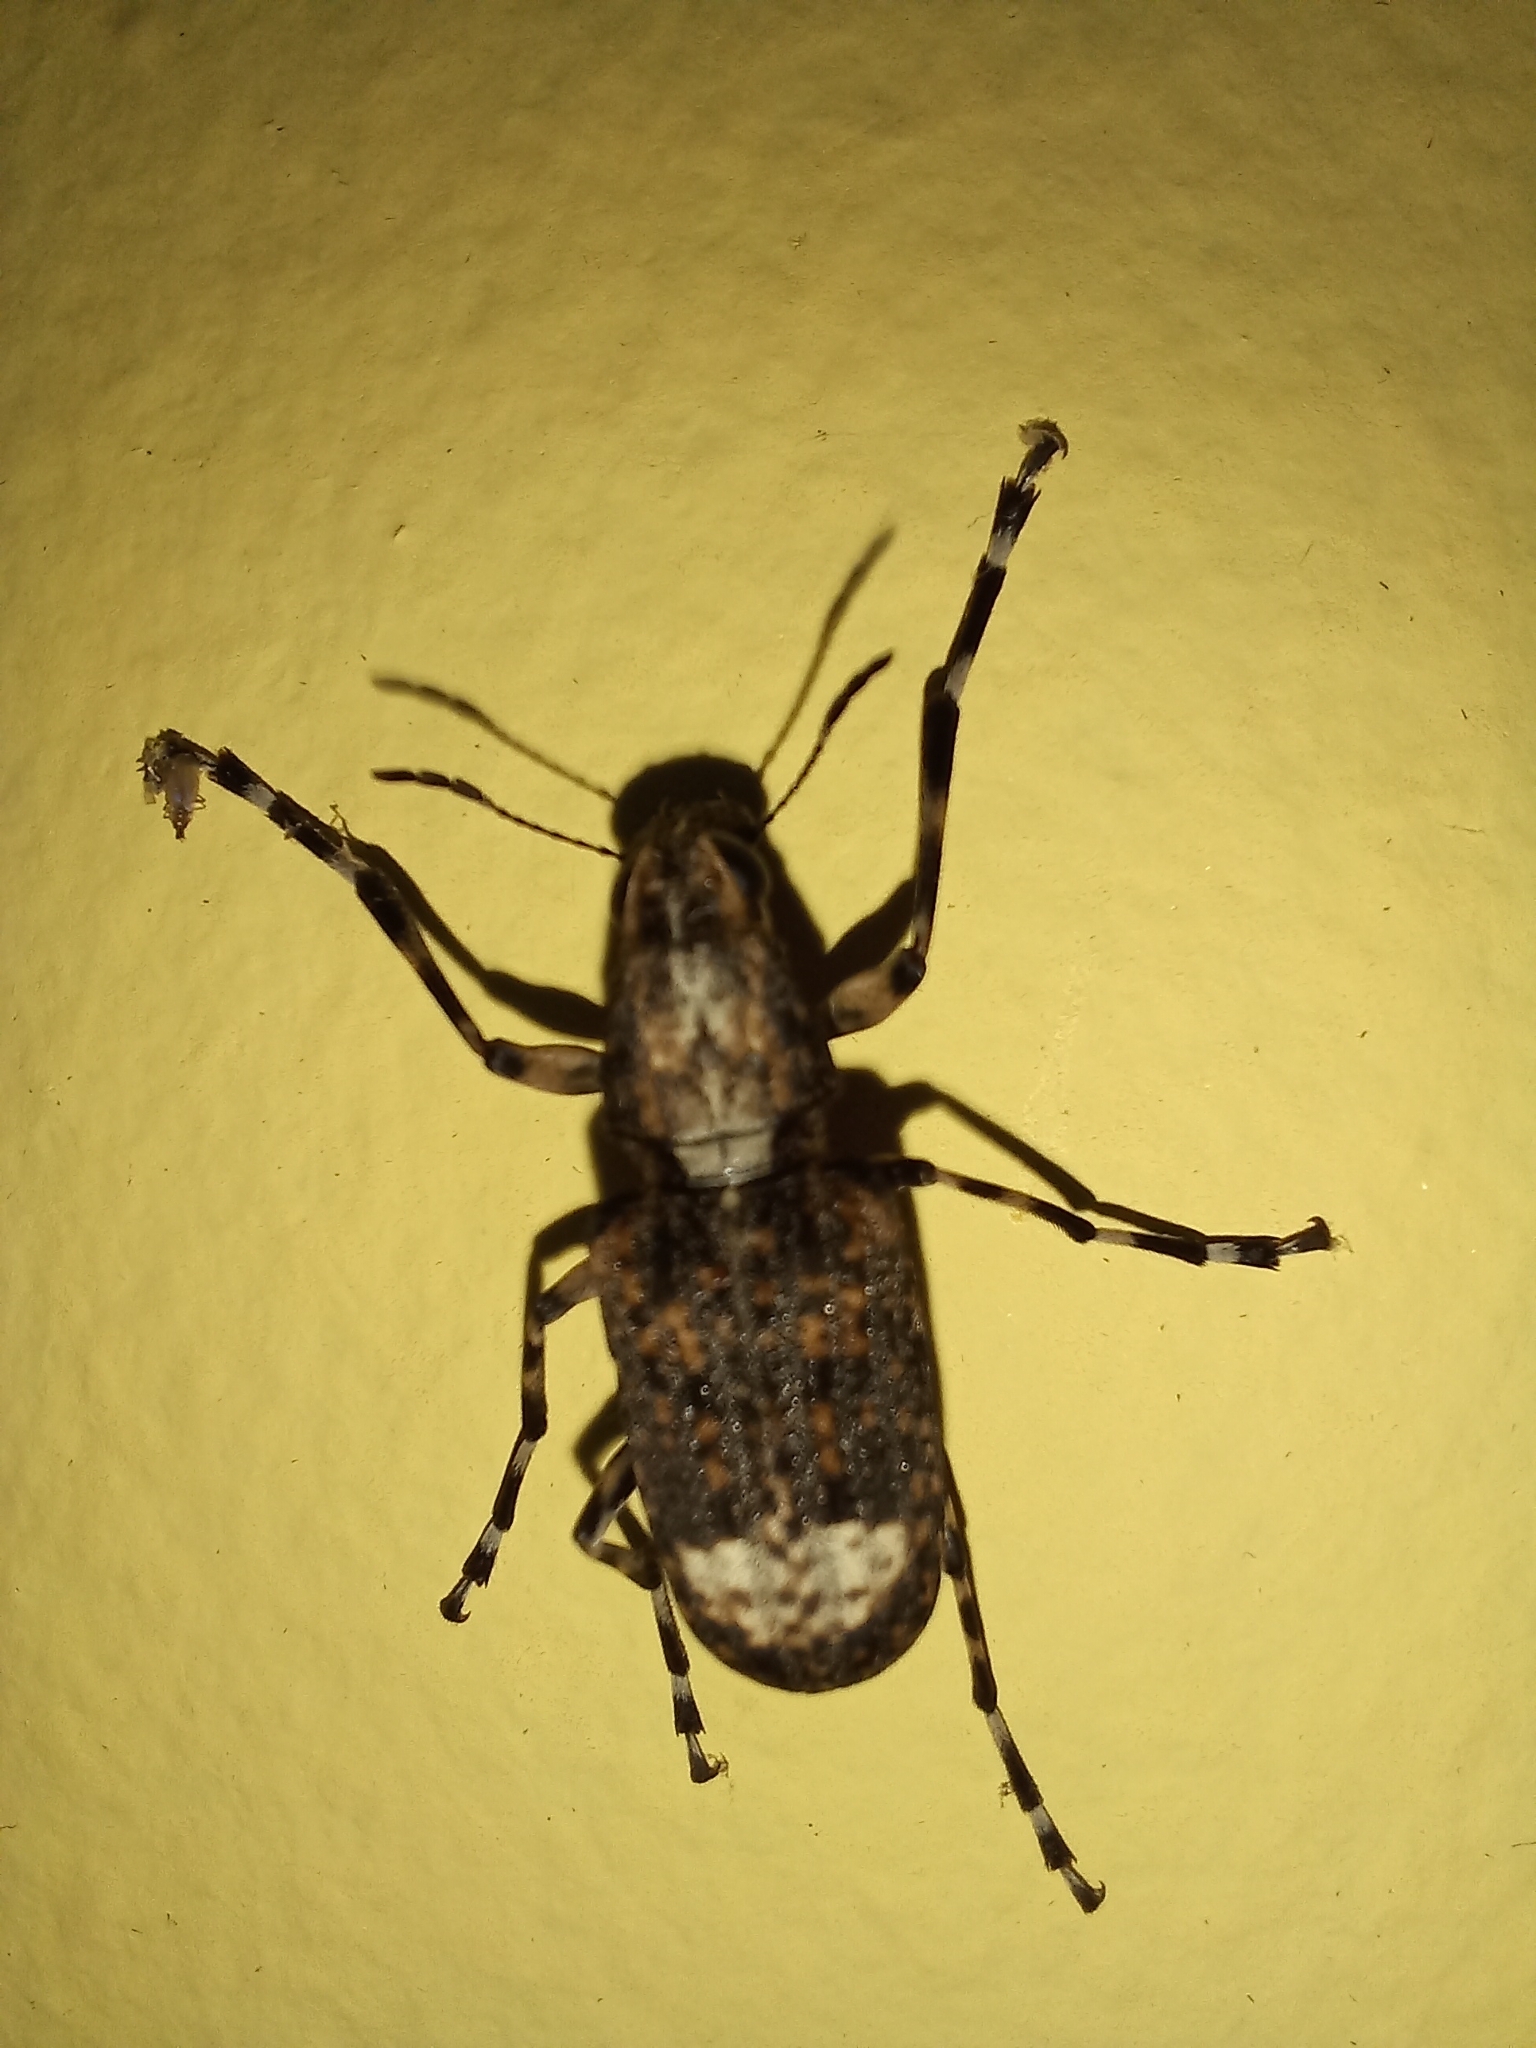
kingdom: Animalia
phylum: Arthropoda
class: Insecta
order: Coleoptera
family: Anthribidae
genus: Chirotenon
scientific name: Chirotenon longimanum
